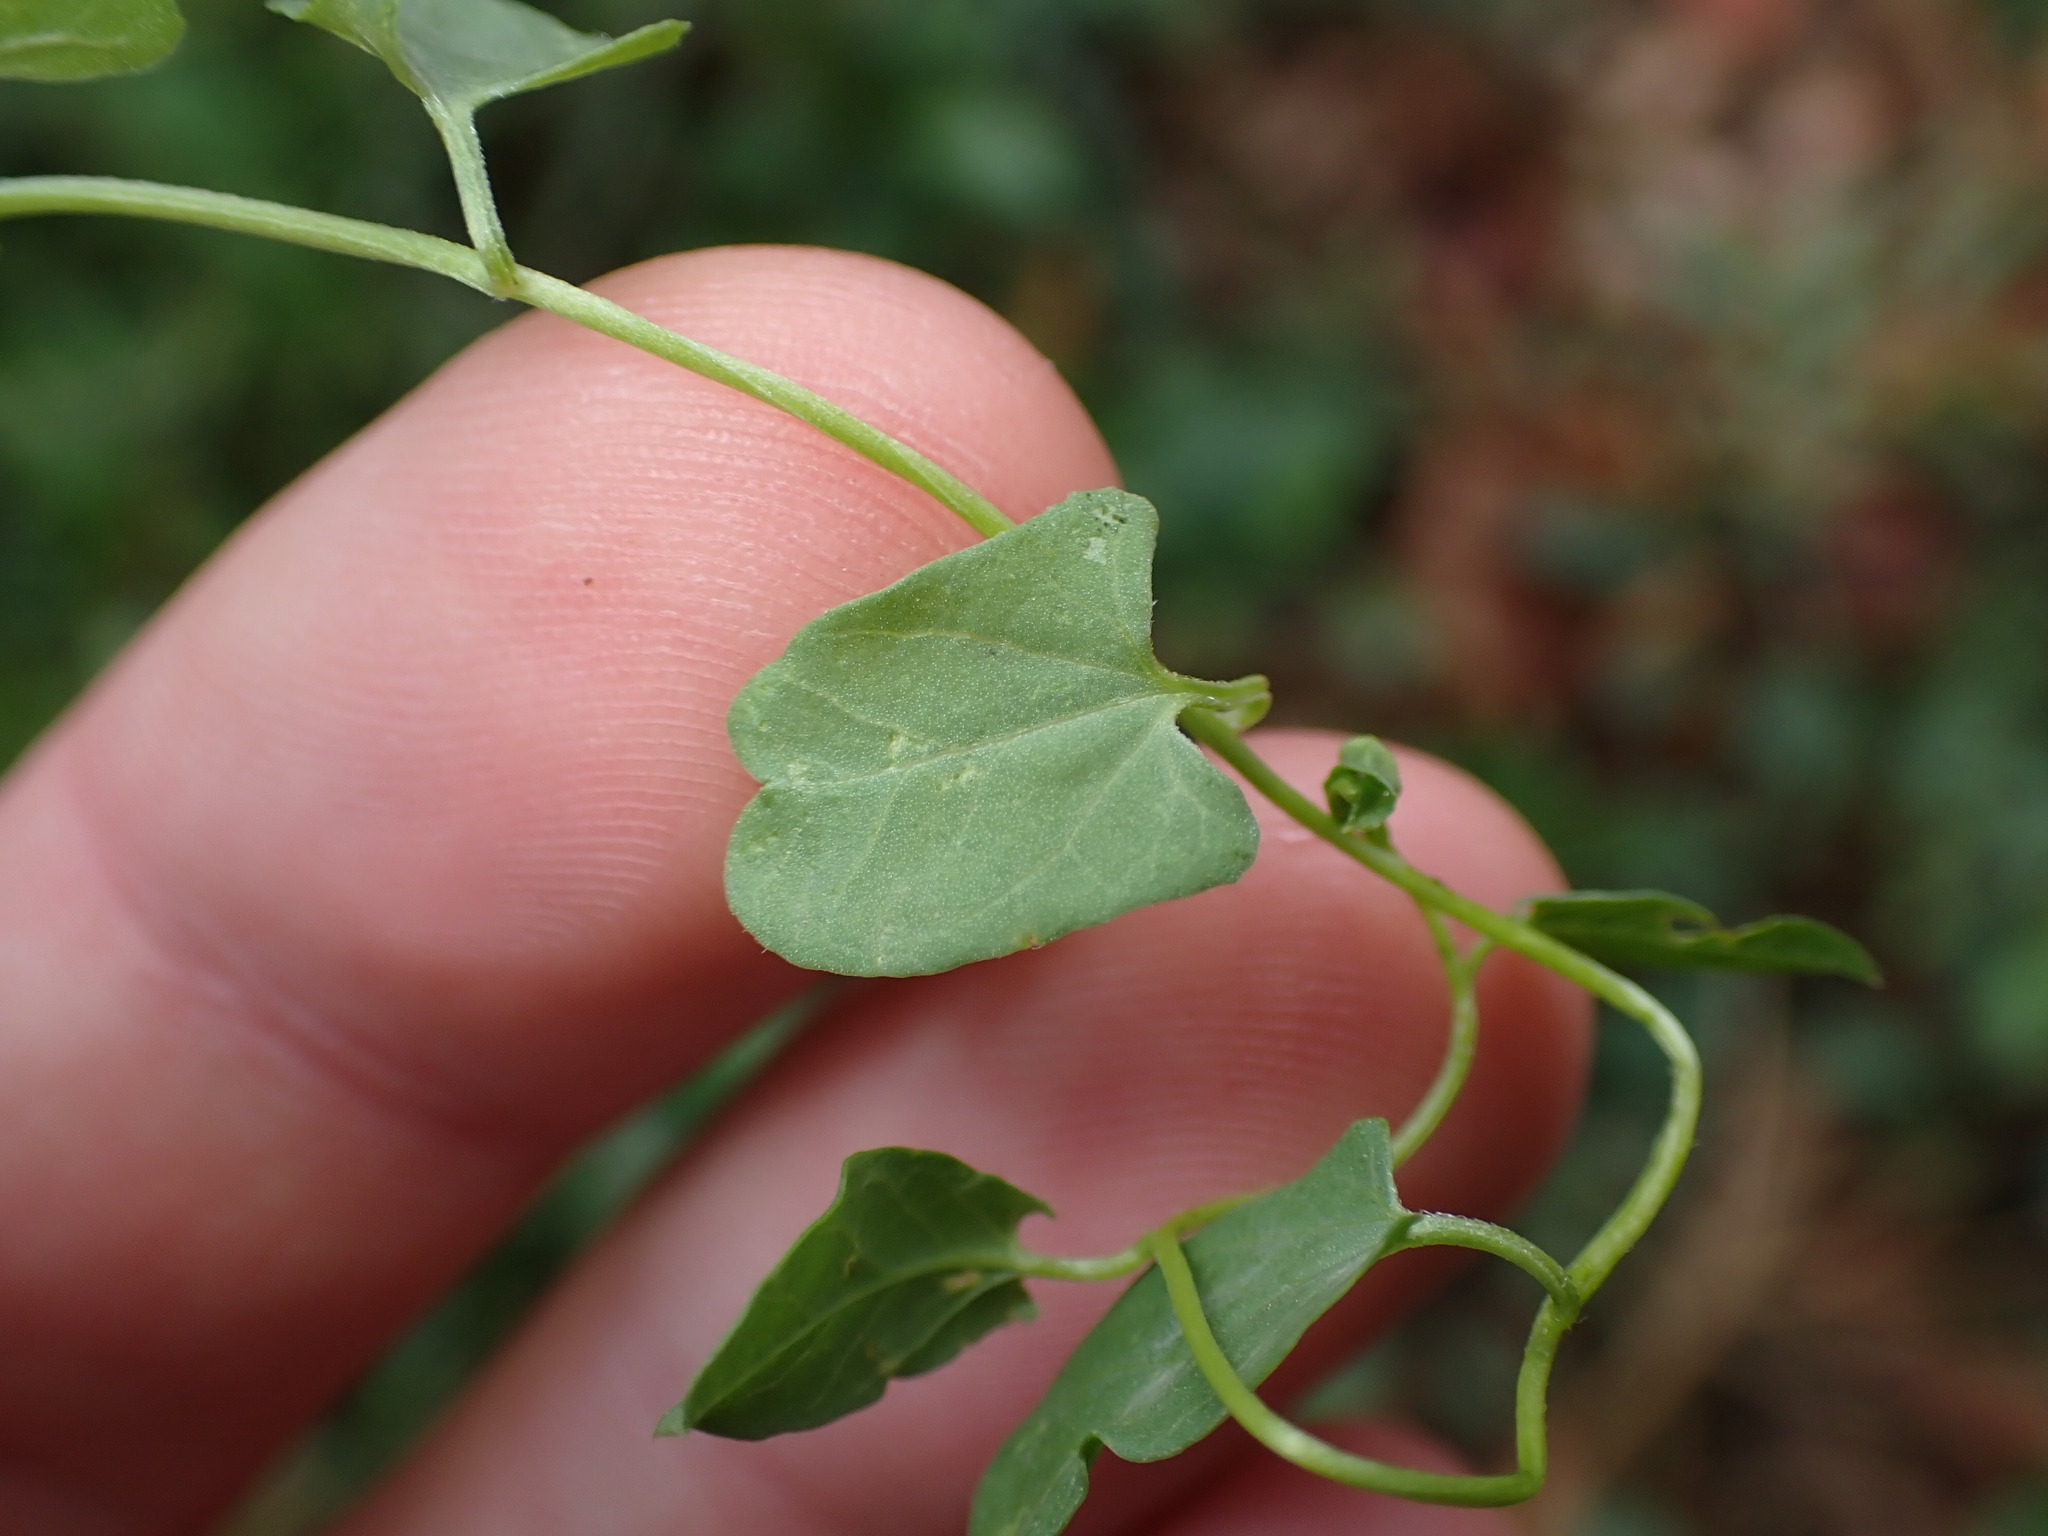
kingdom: Plantae
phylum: Tracheophyta
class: Magnoliopsida
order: Solanales
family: Convolvulaceae
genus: Convolvulus
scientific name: Convolvulus arvensis
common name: Field bindweed
